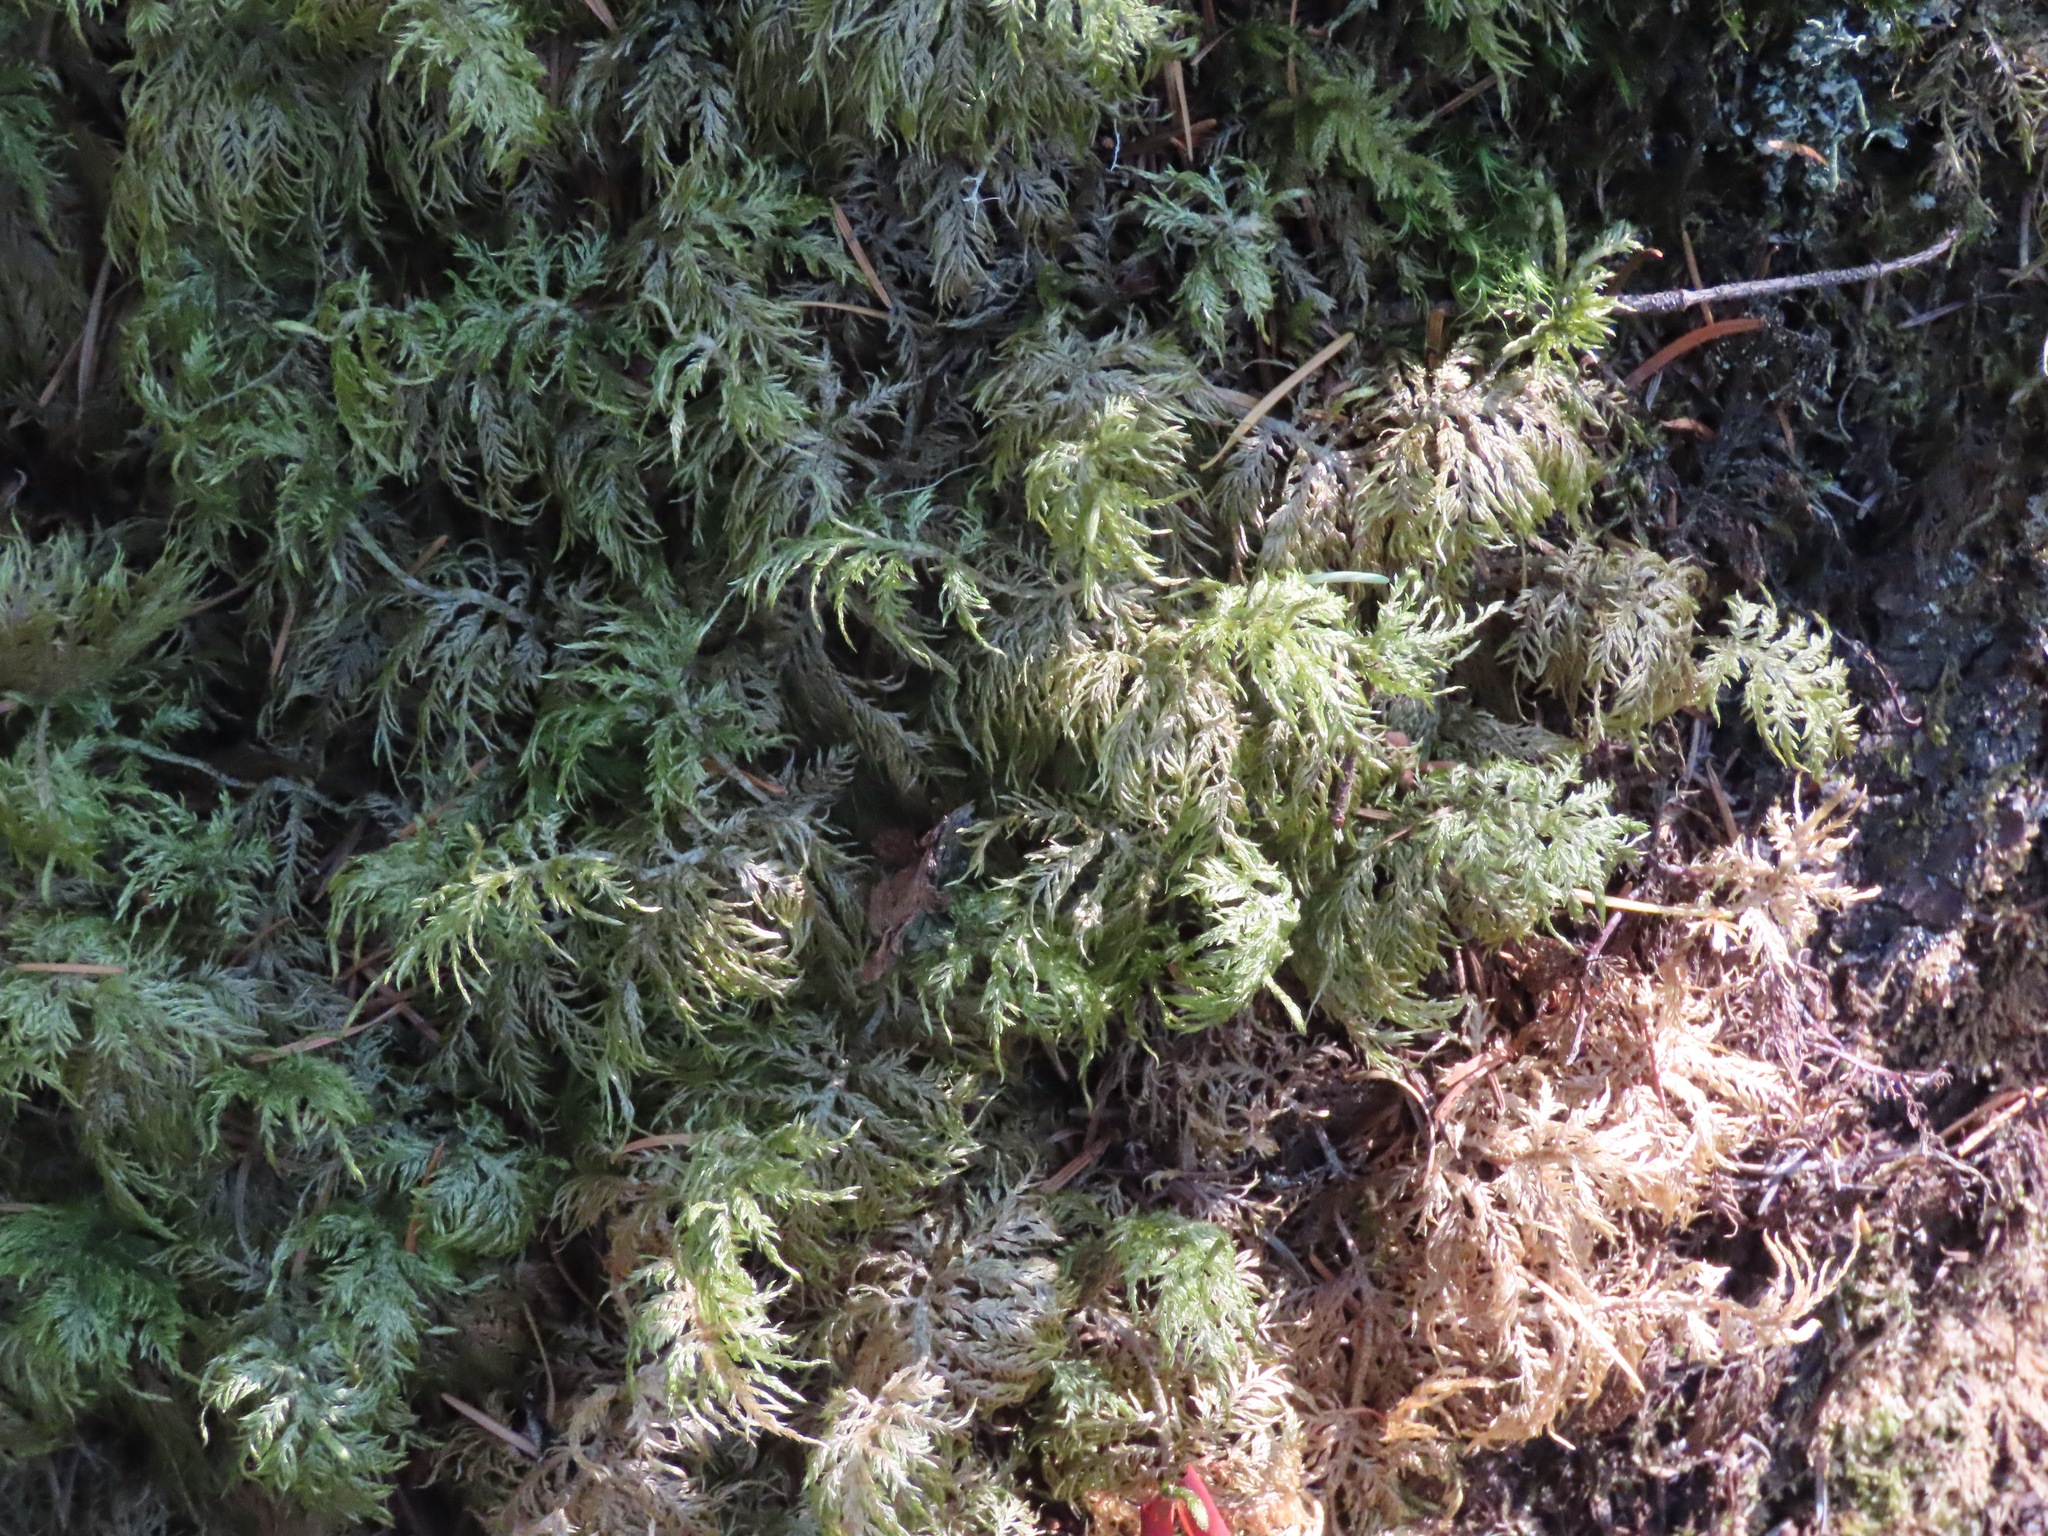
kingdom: Plantae
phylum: Bryophyta
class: Bryopsida
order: Hypnales
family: Hylocomiaceae
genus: Hylocomium
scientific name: Hylocomium splendens
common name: Stairstep moss
